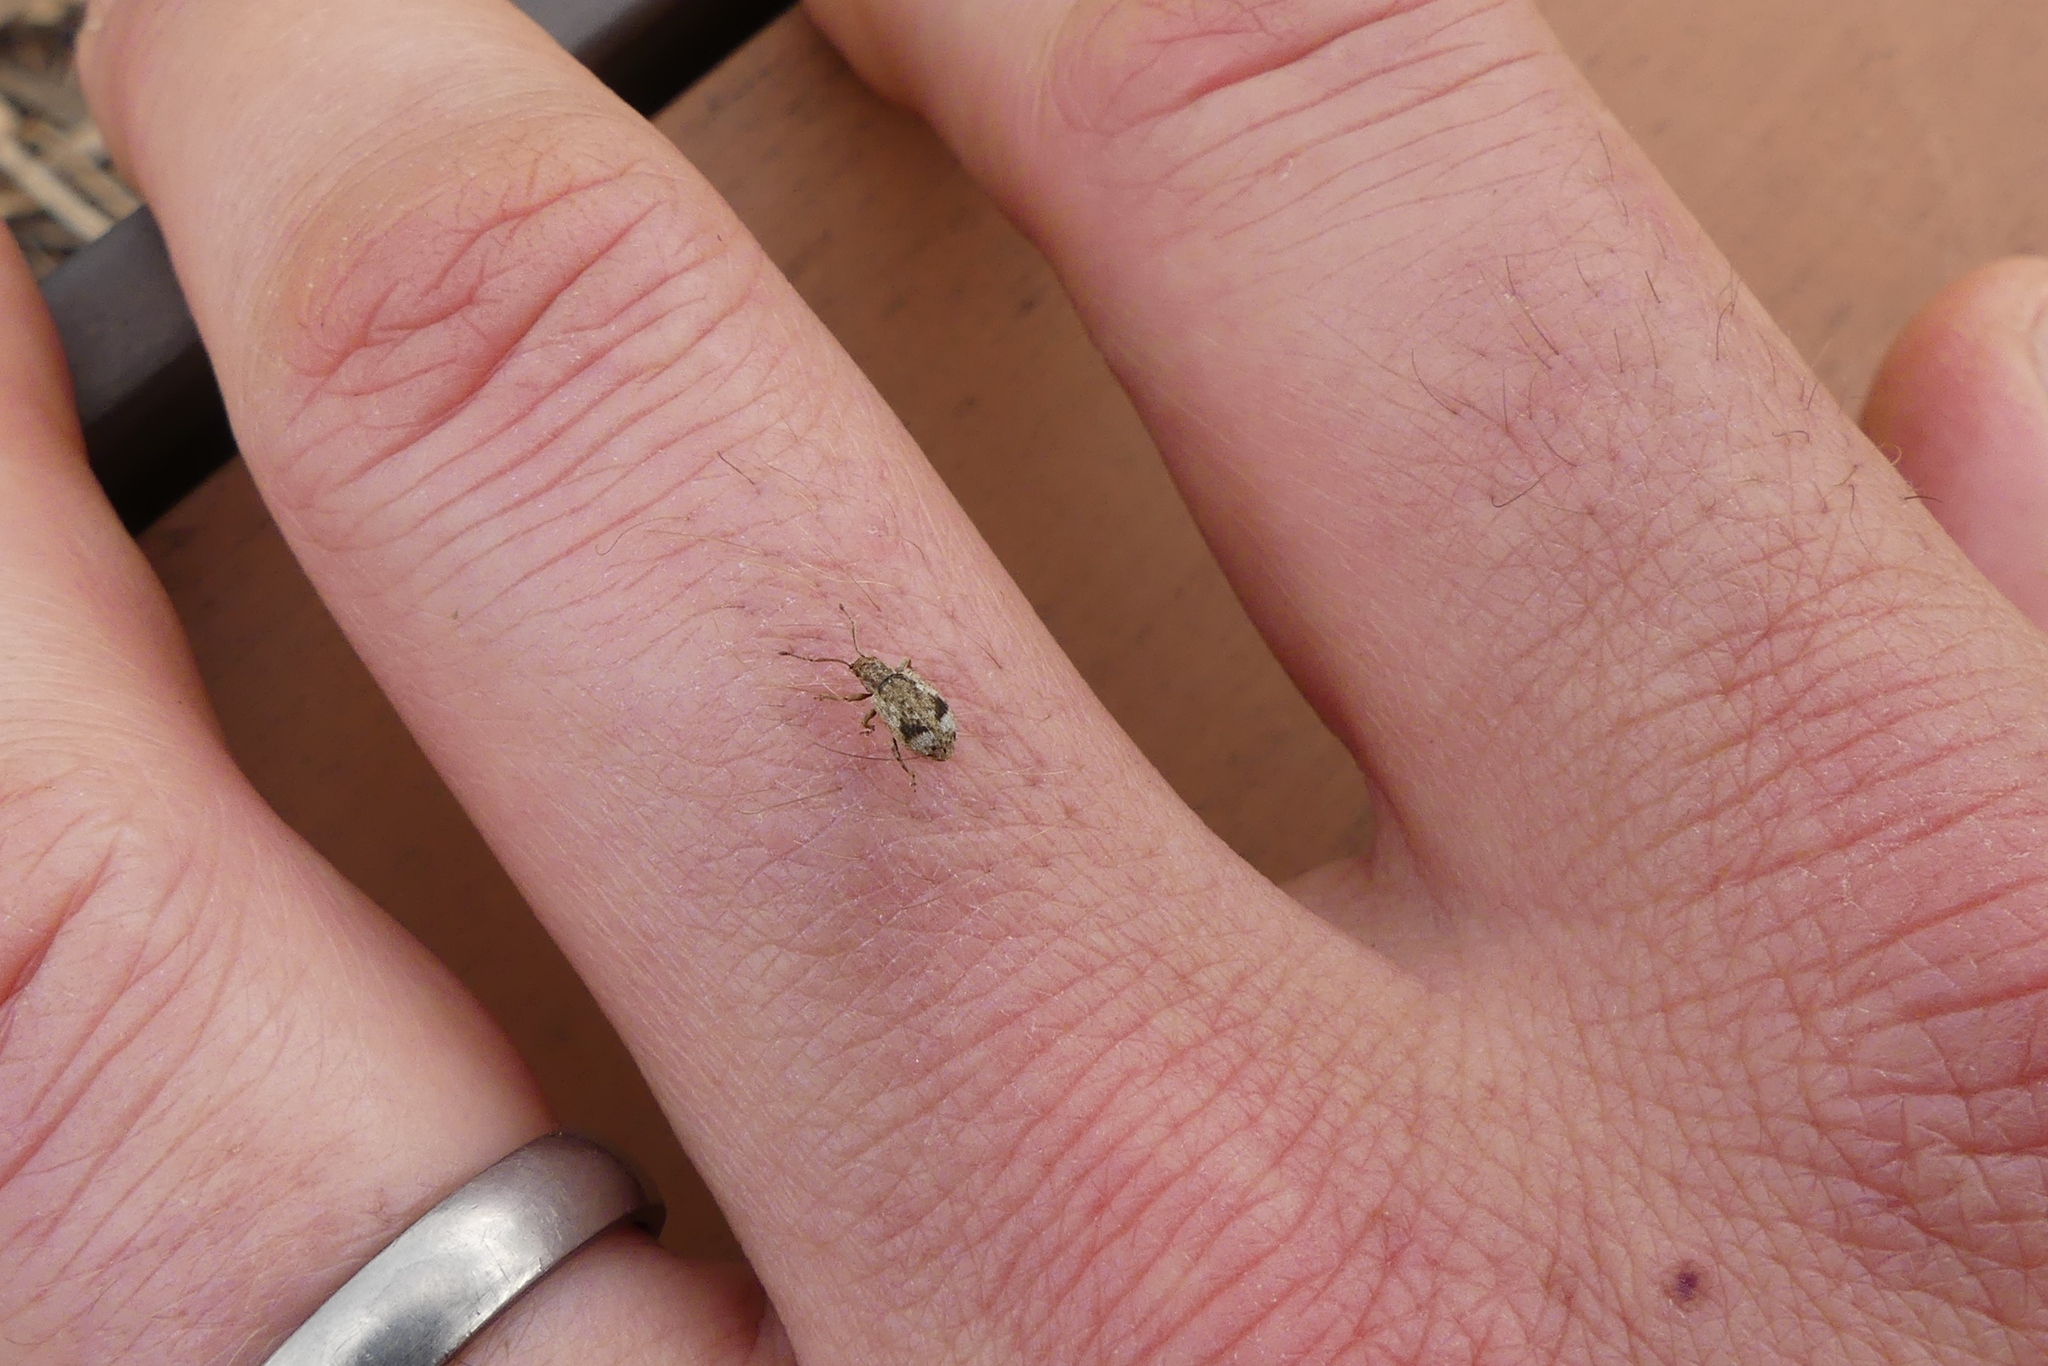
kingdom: Animalia
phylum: Arthropoda
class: Insecta
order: Coleoptera
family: Curculionidae
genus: Pseudoedophrys
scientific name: Pseudoedophrys hilleri
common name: Weevil
